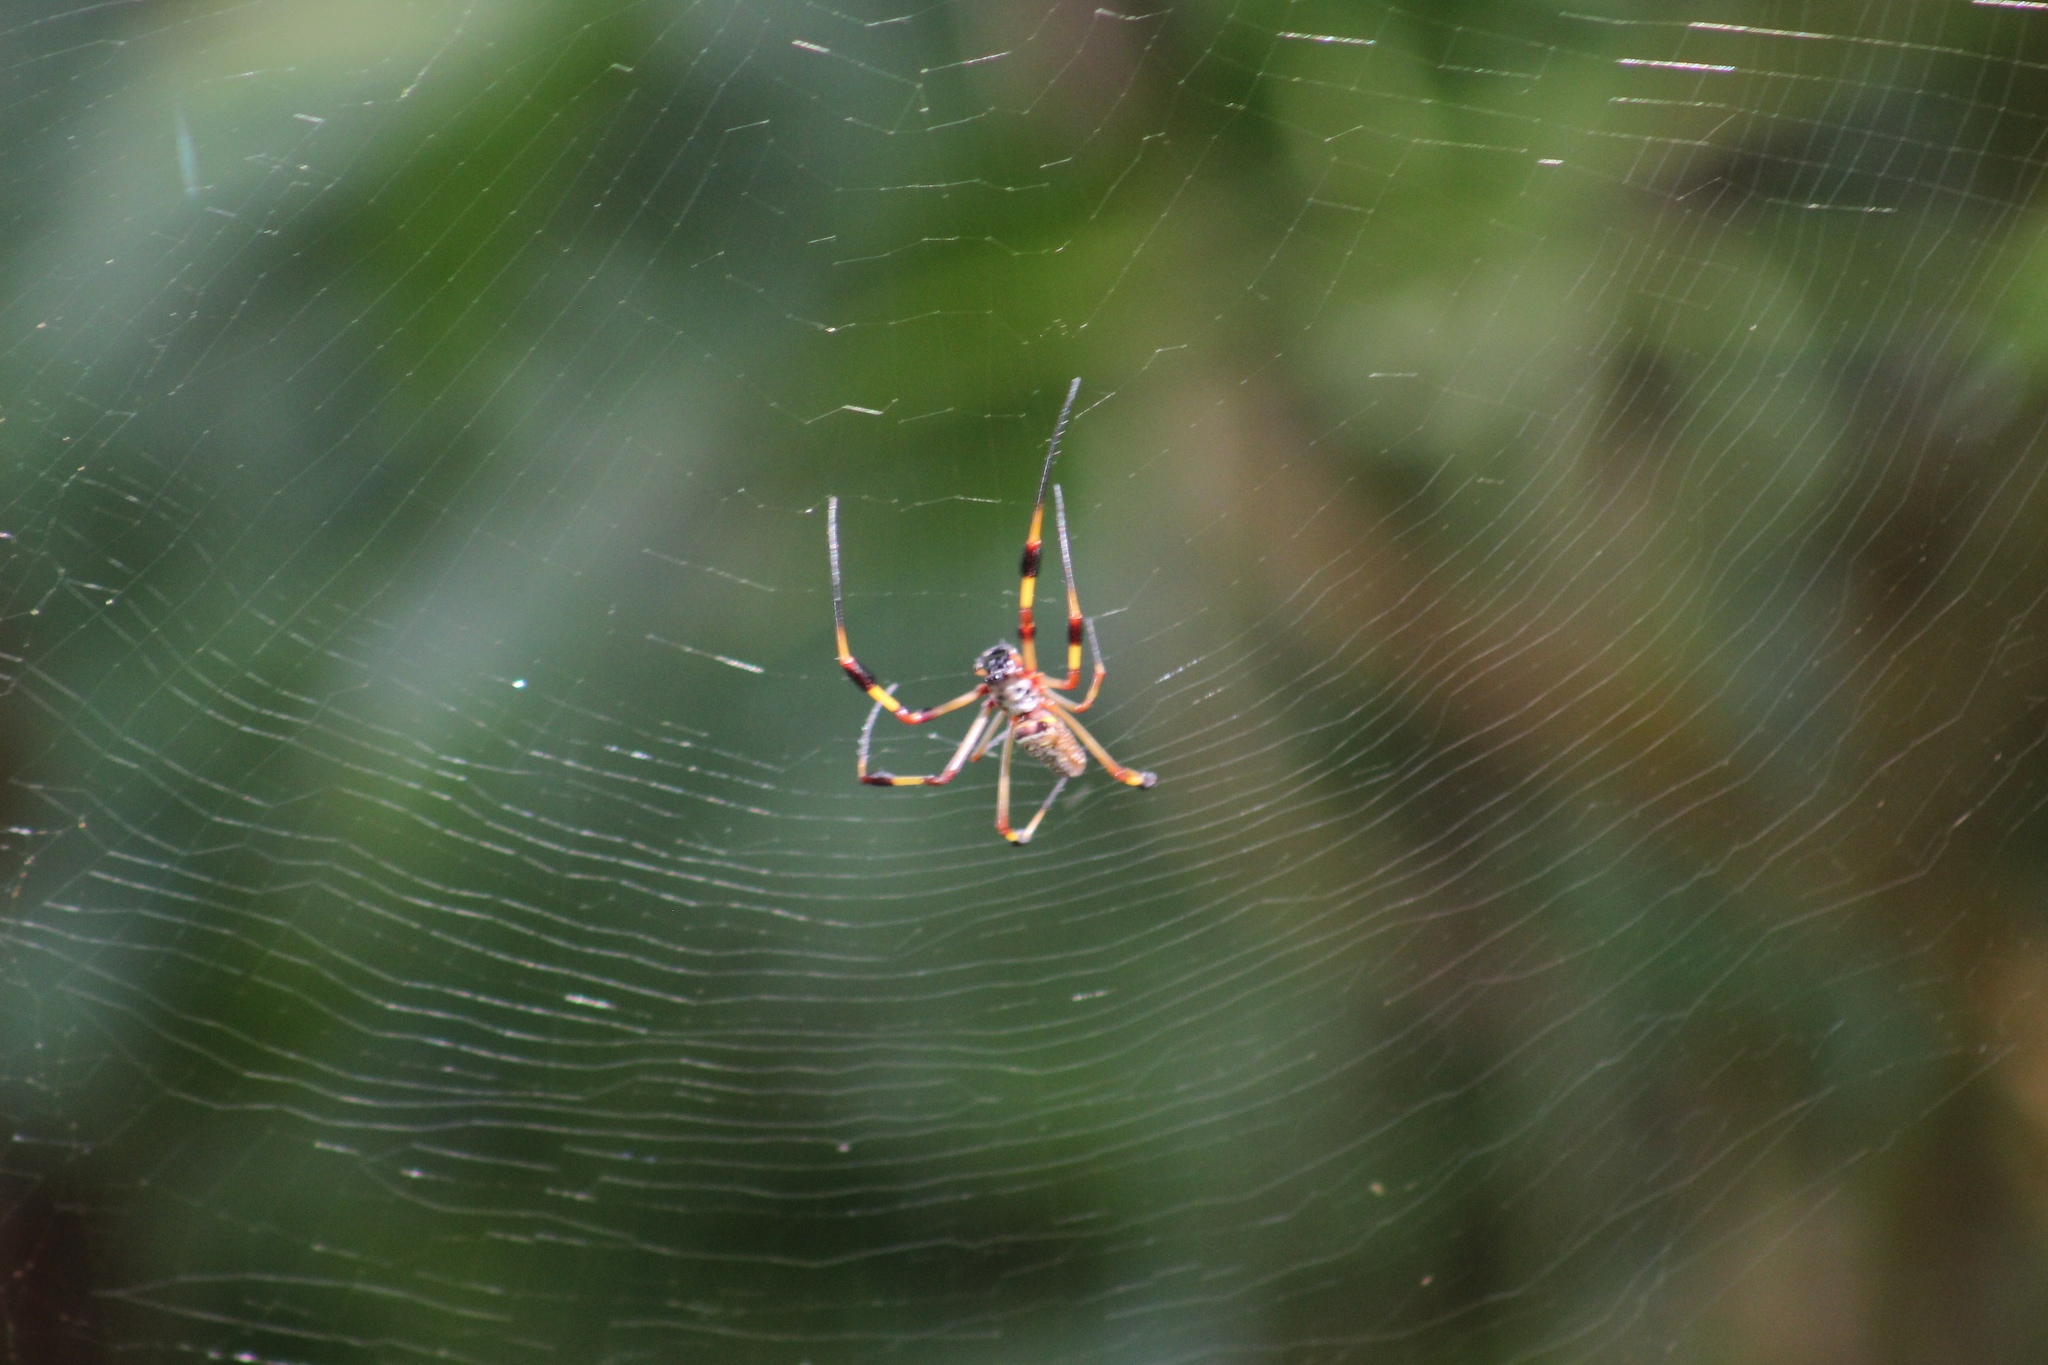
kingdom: Animalia
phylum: Arthropoda
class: Arachnida
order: Araneae
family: Araneidae
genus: Trichonephila
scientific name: Trichonephila clavipes
